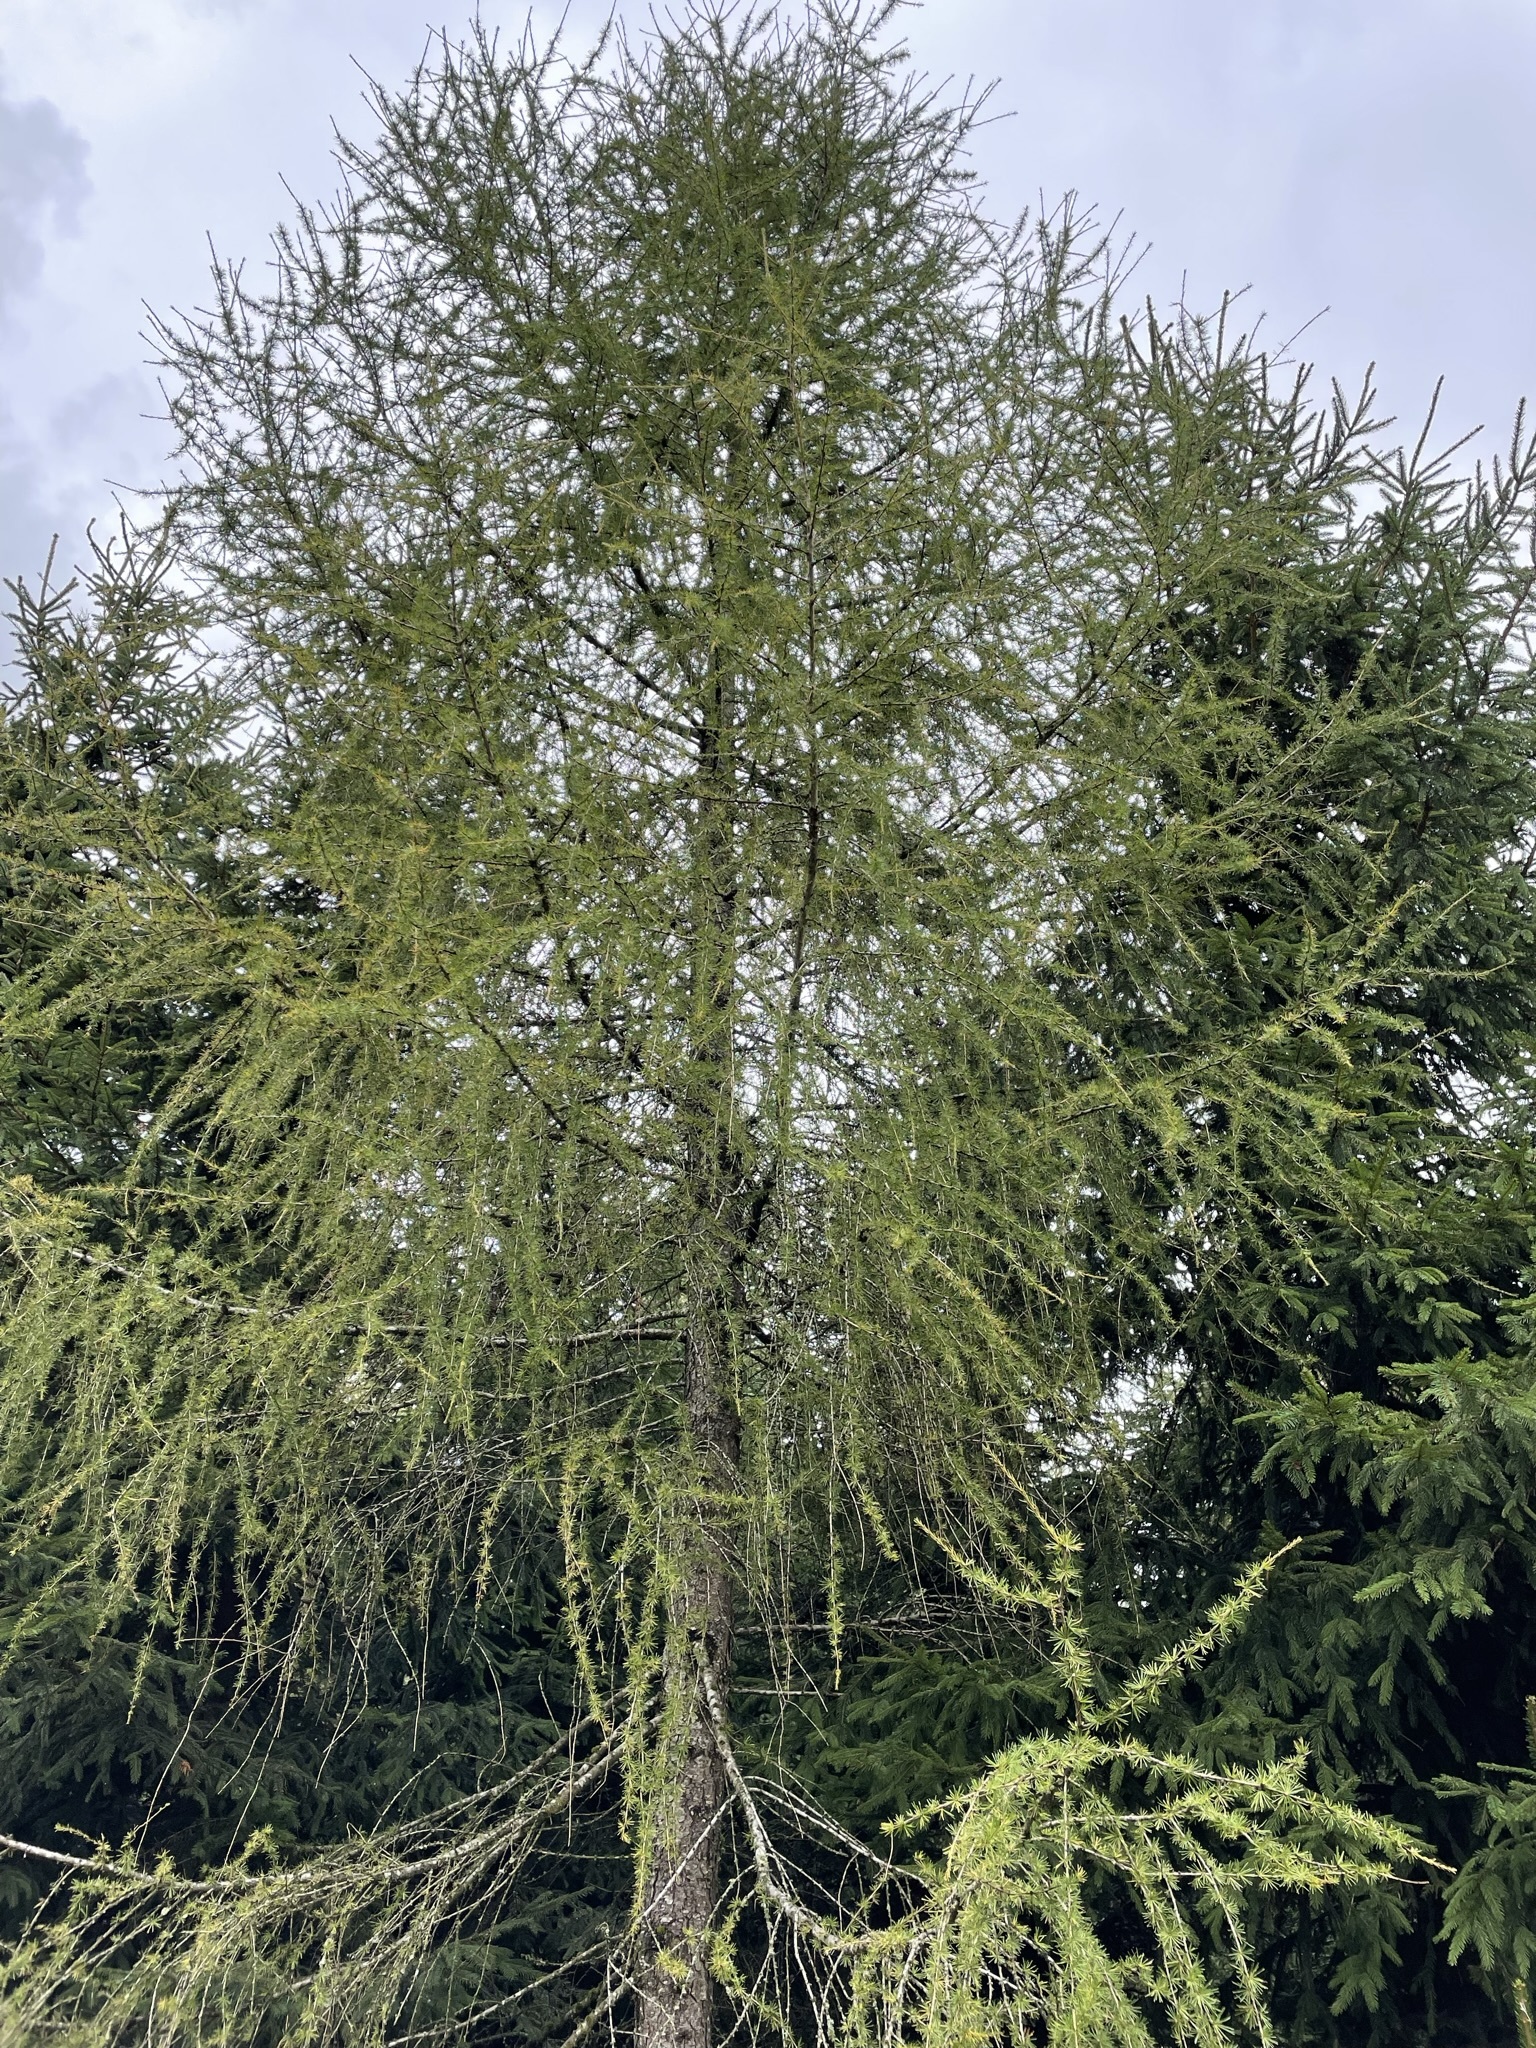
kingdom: Plantae
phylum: Tracheophyta
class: Pinopsida
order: Pinales
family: Pinaceae
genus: Larix
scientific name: Larix decidua
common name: European larch
